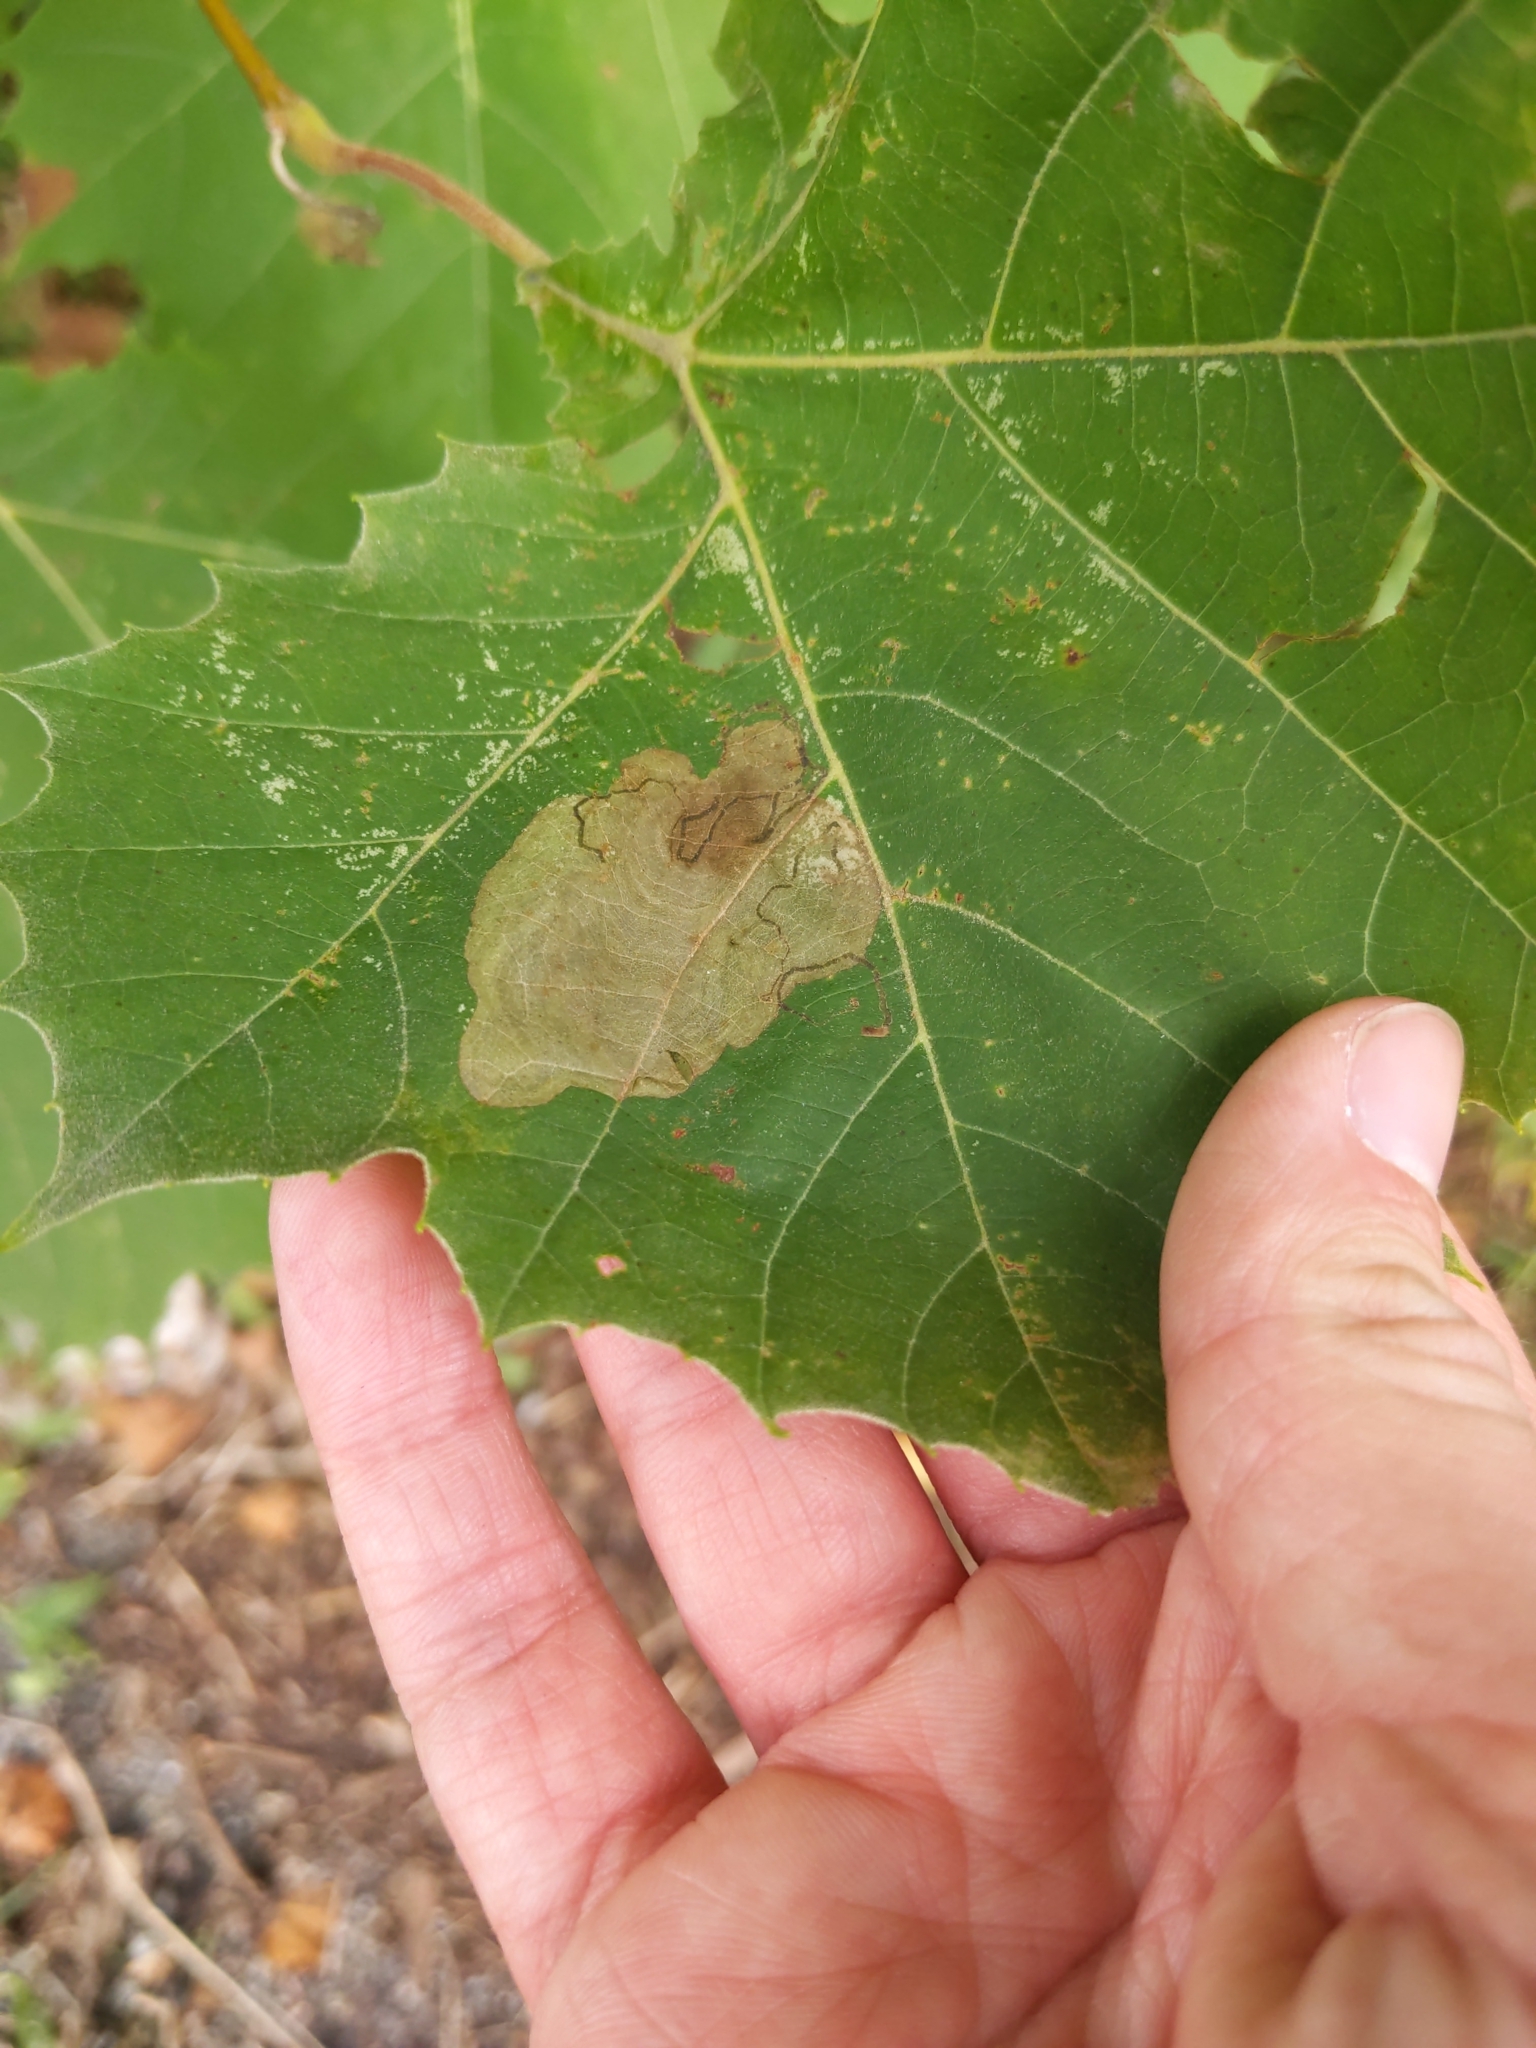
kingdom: Animalia
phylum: Arthropoda
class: Insecta
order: Lepidoptera
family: Nepticulidae
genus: Ectoedemia
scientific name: Ectoedemia platanella
